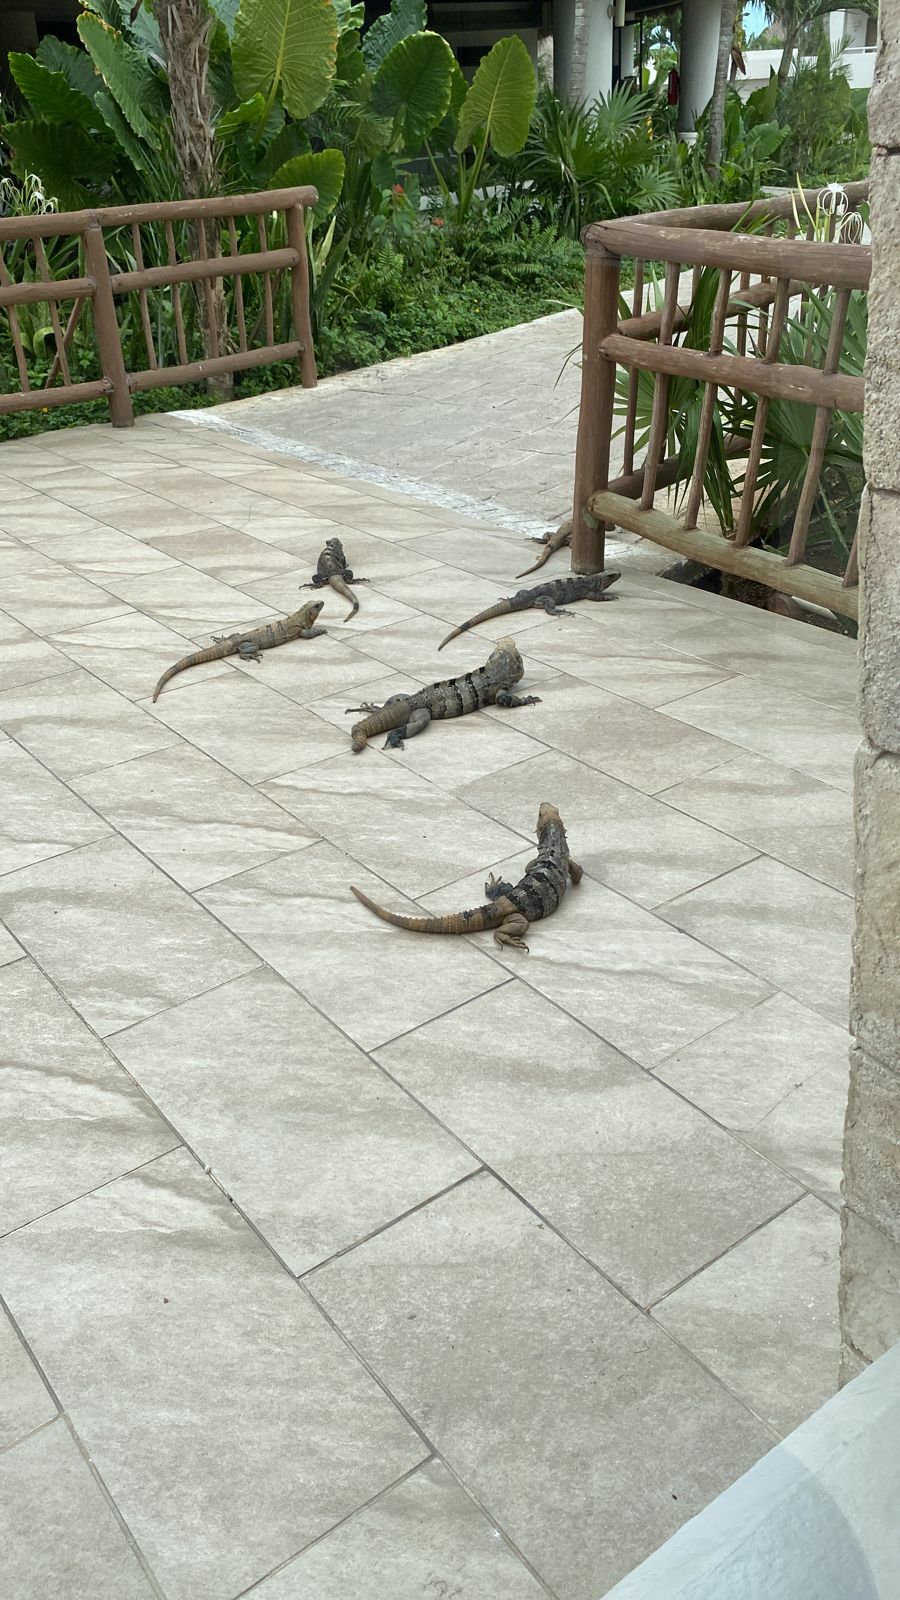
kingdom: Animalia
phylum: Chordata
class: Squamata
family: Iguanidae
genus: Ctenosaura
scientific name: Ctenosaura similis
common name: Black spiny-tailed iguana
